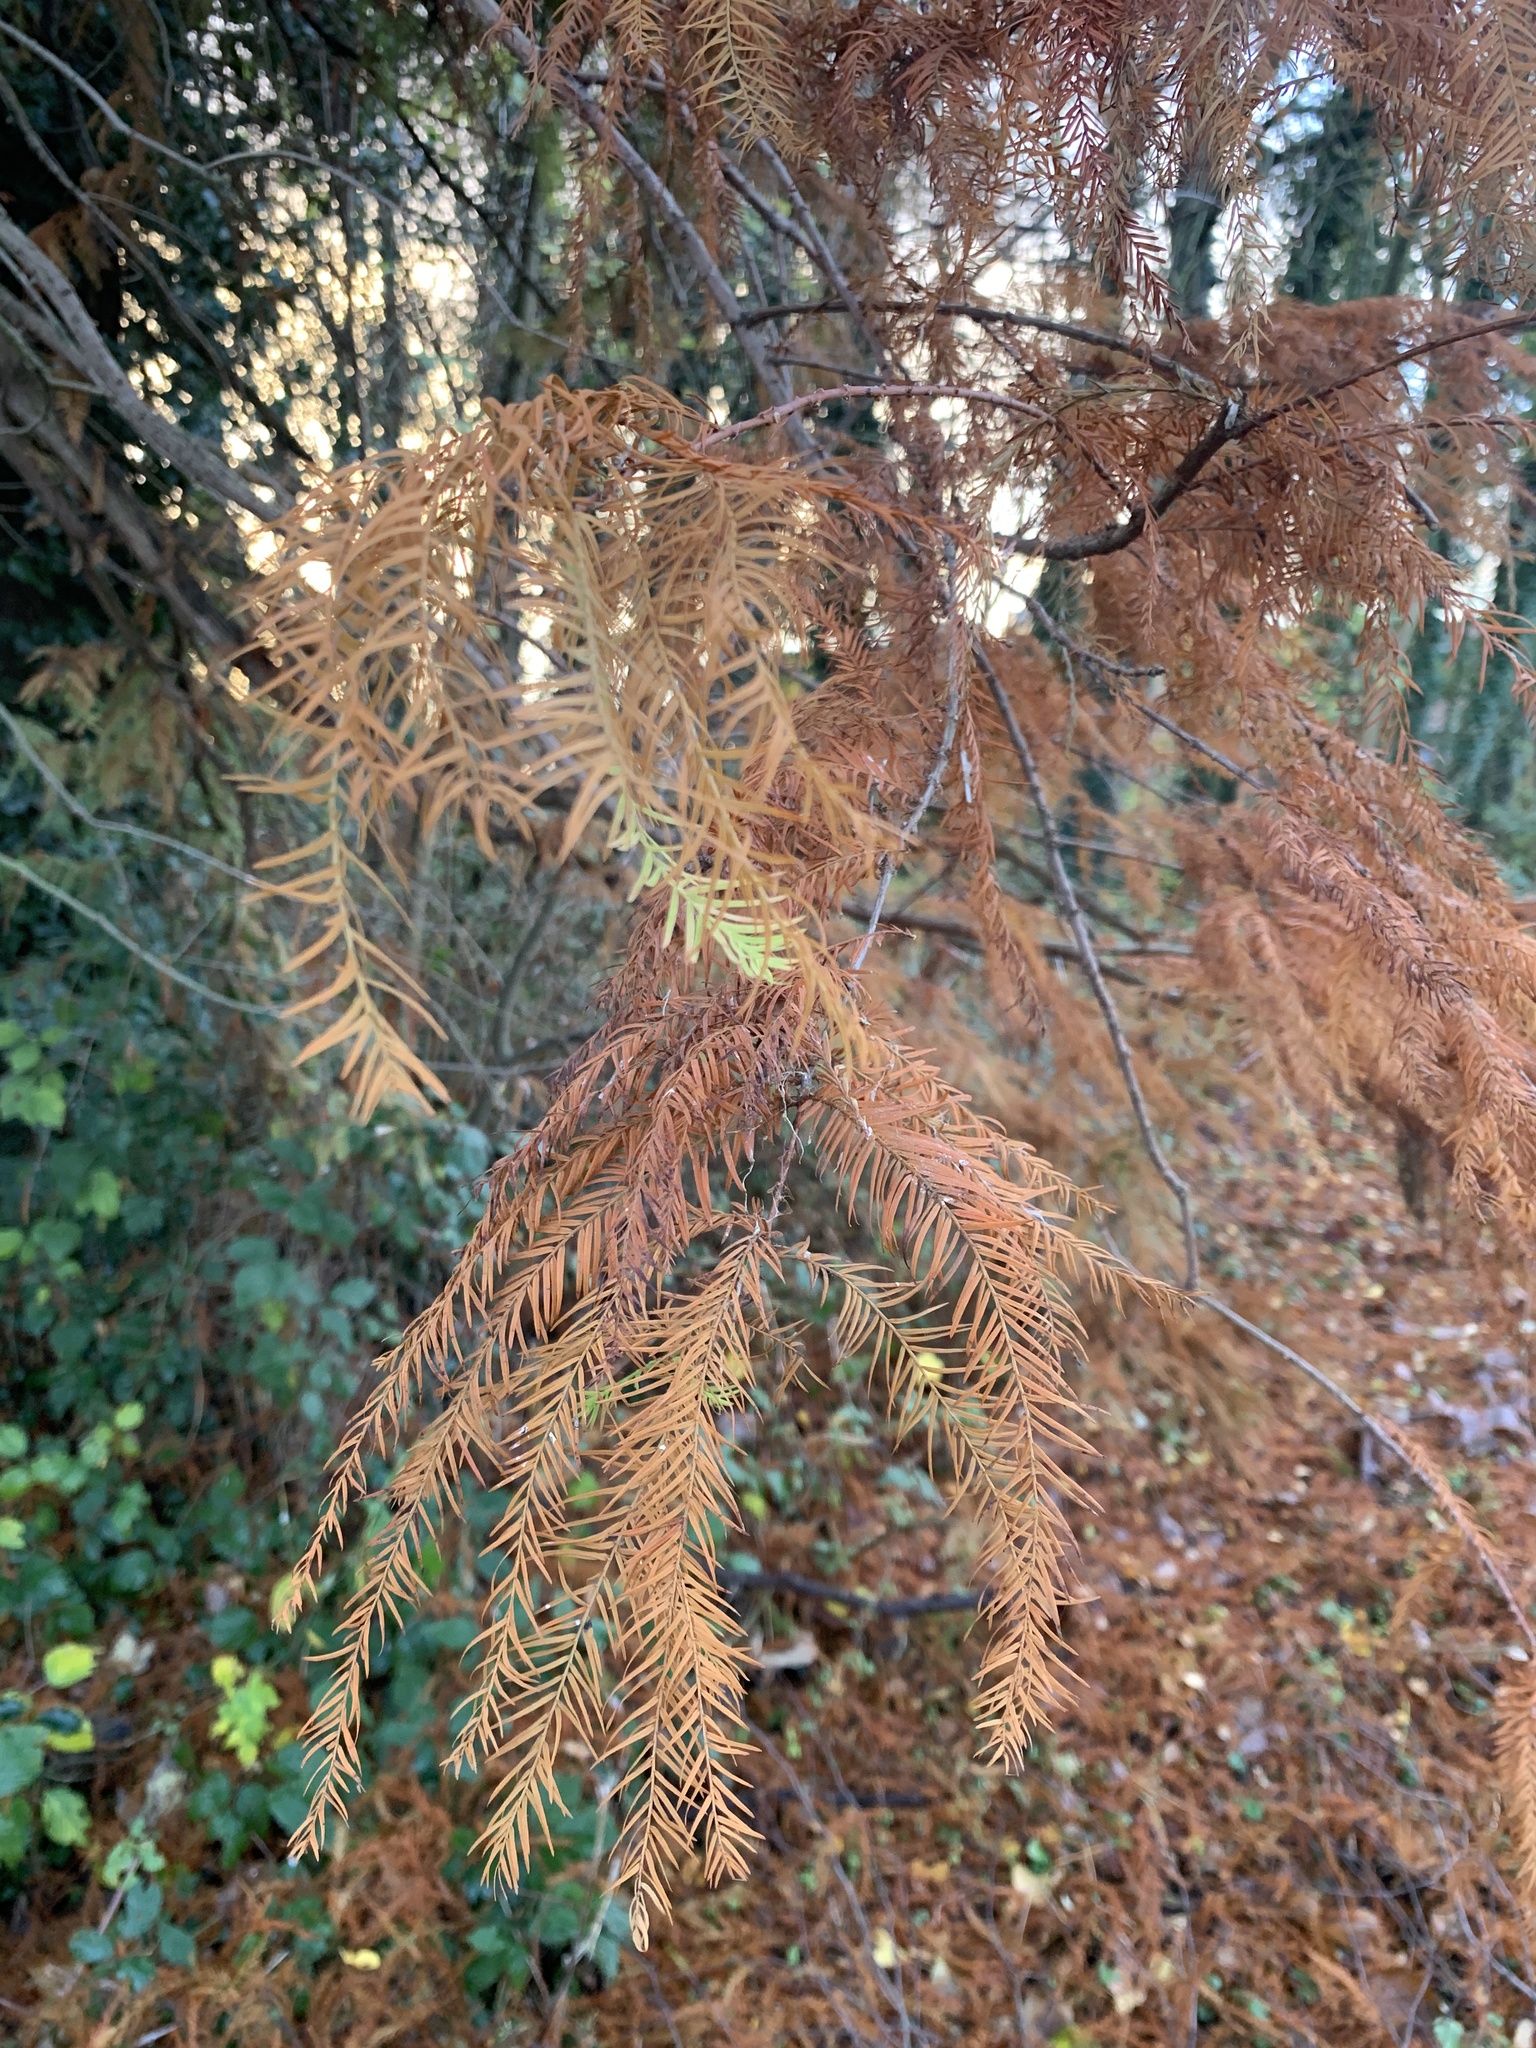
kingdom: Plantae
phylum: Tracheophyta
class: Pinopsida
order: Pinales
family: Cupressaceae
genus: Taxodium
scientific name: Taxodium distichum
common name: Bald cypress
